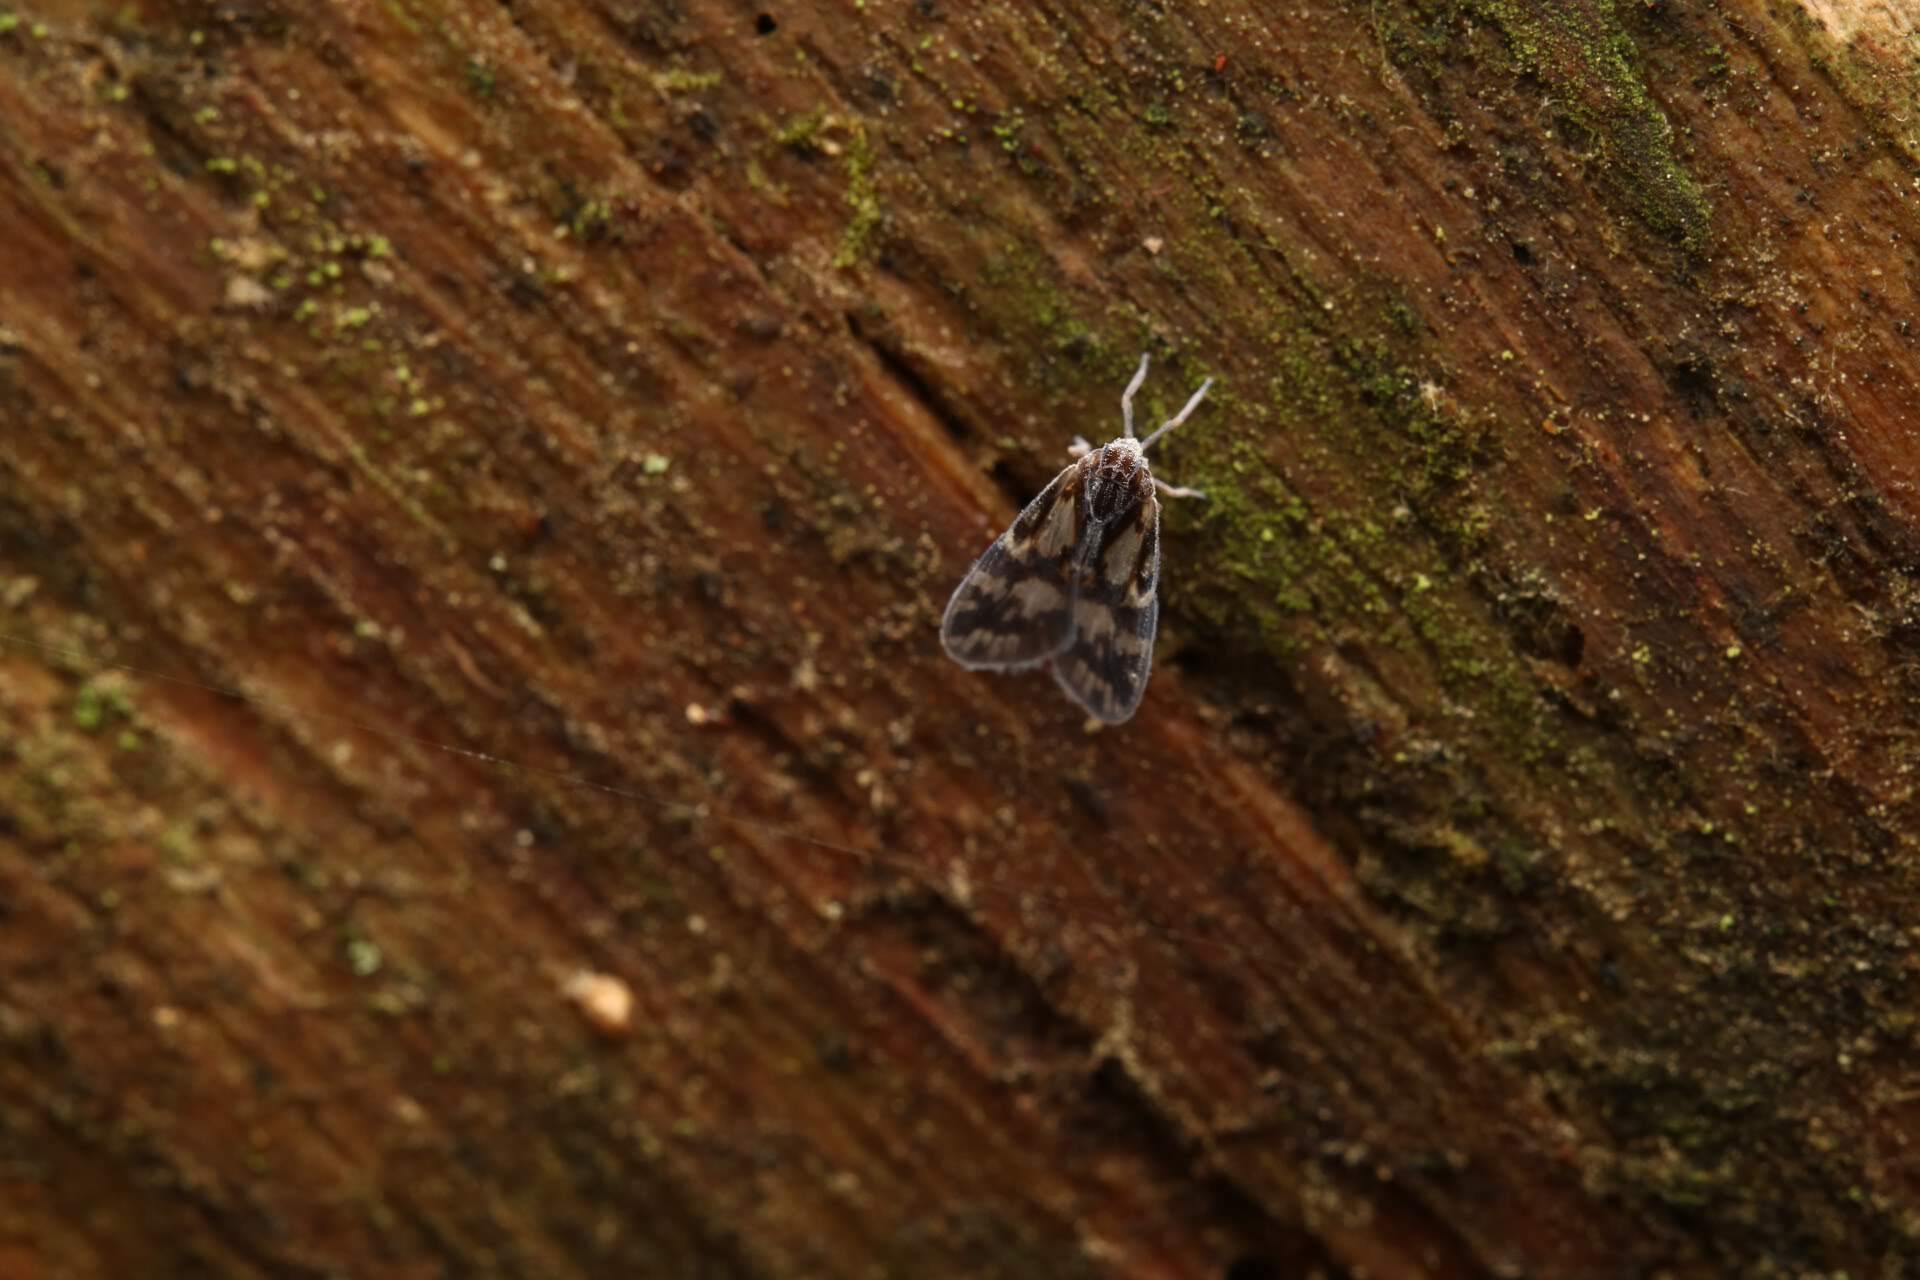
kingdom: Animalia
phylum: Arthropoda
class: Insecta
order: Hemiptera
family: Cixiidae
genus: Bothriocera
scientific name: Bothriocera cognita
